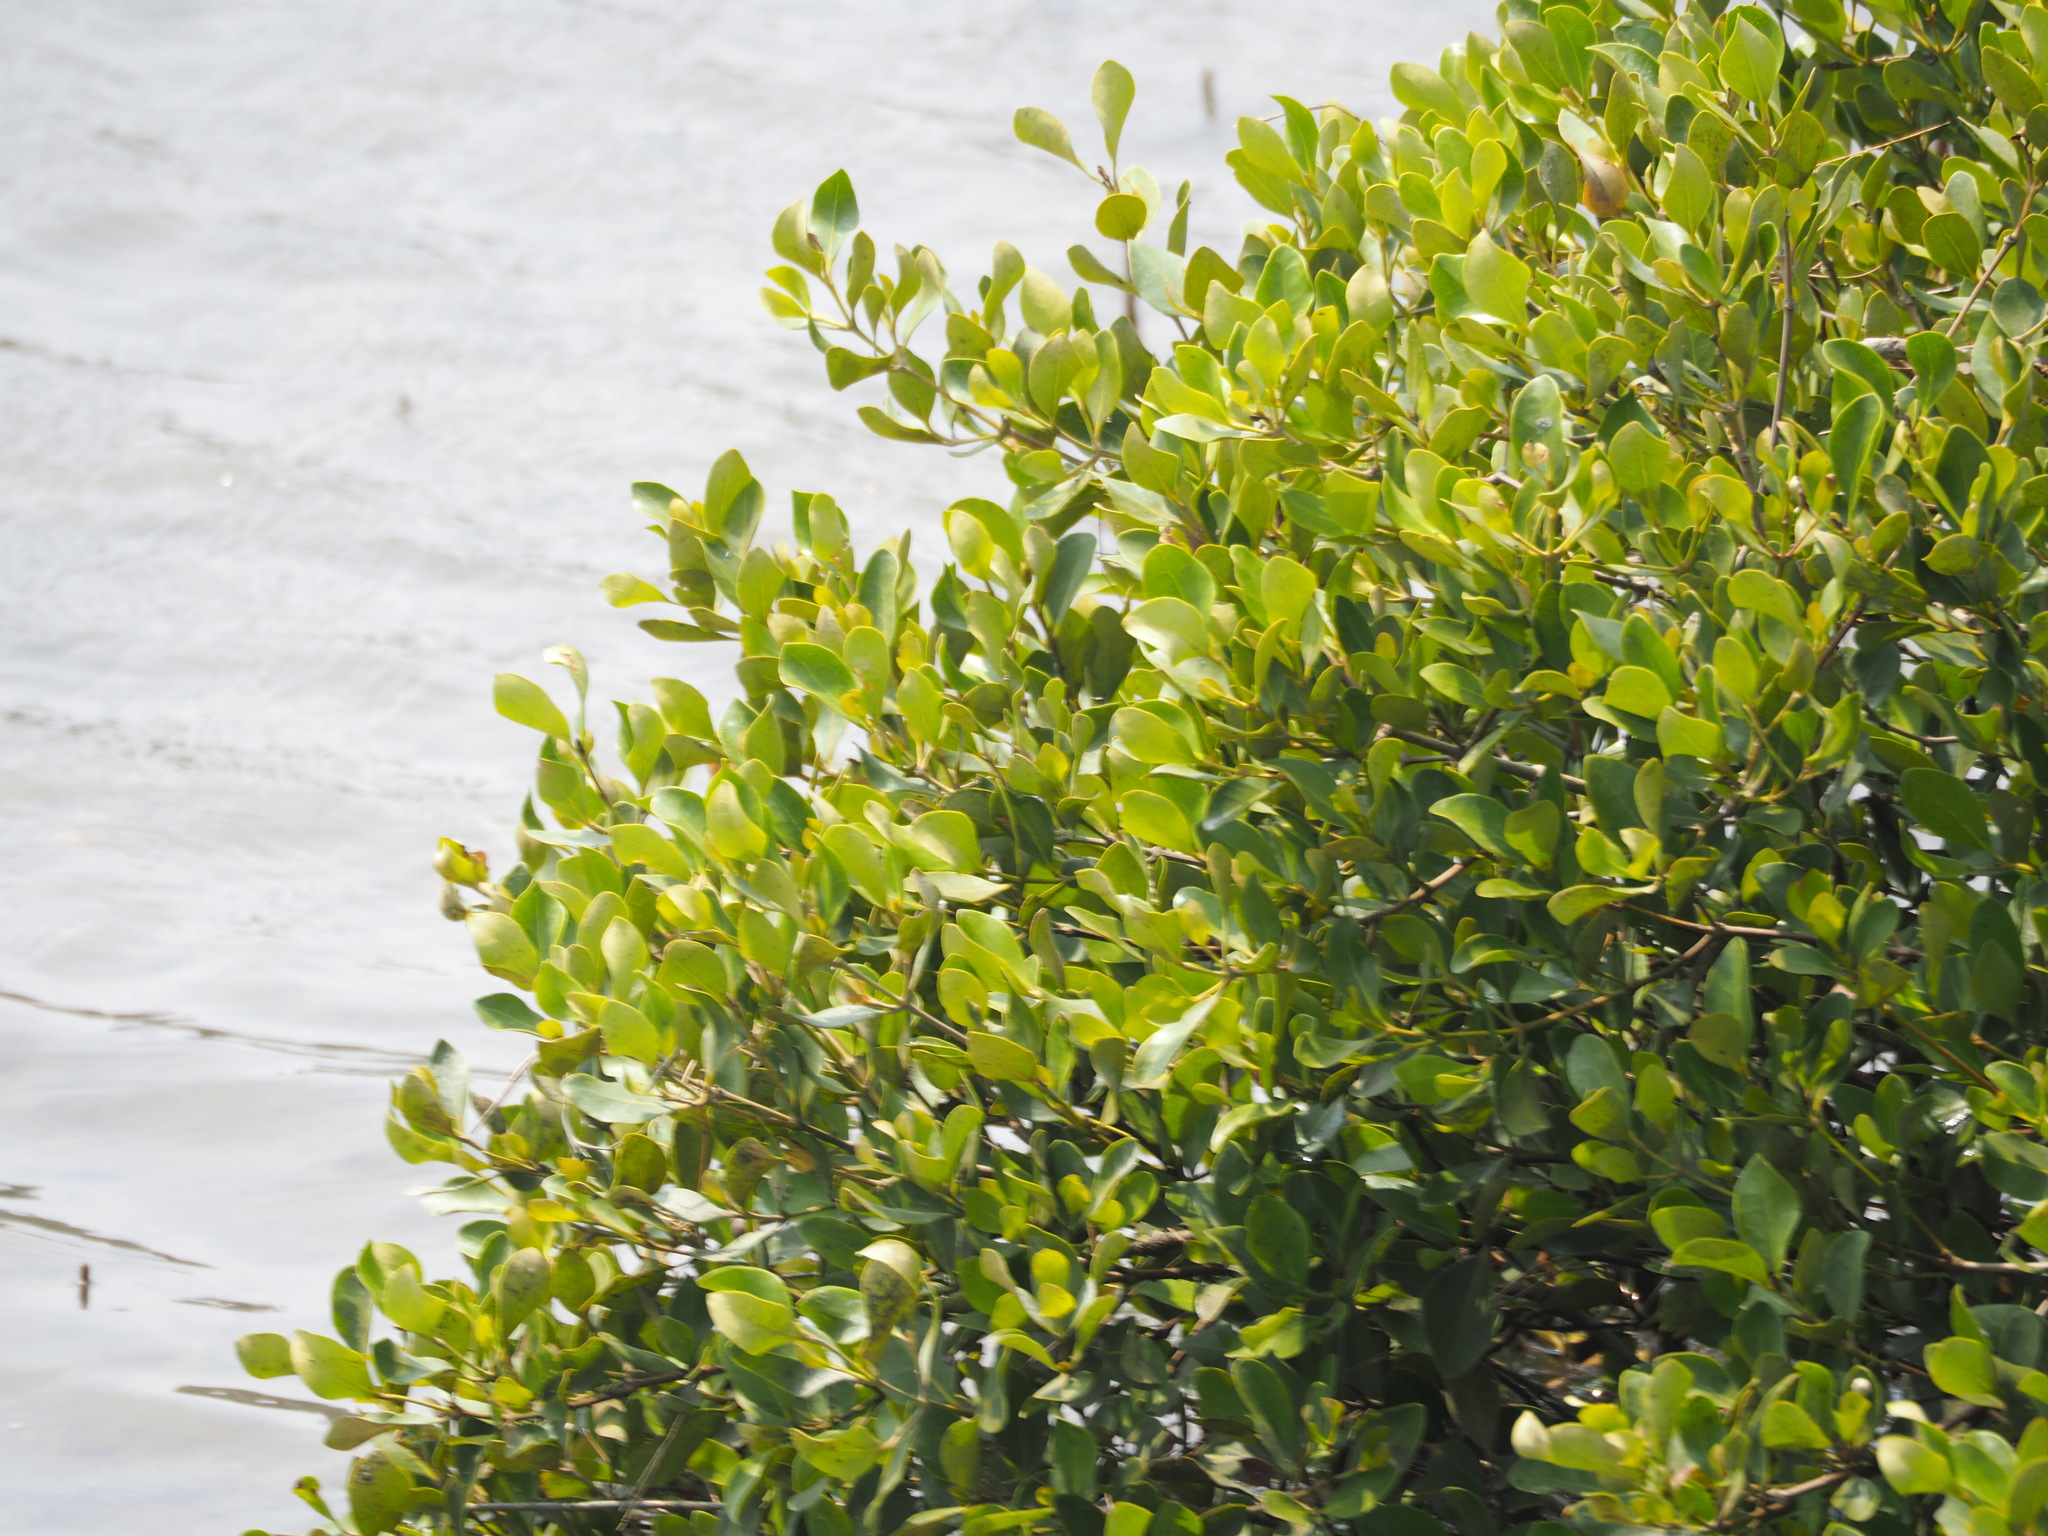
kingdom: Plantae
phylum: Tracheophyta
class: Magnoliopsida
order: Lamiales
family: Acanthaceae
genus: Avicennia
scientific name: Avicennia marina
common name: Gray mangrove
